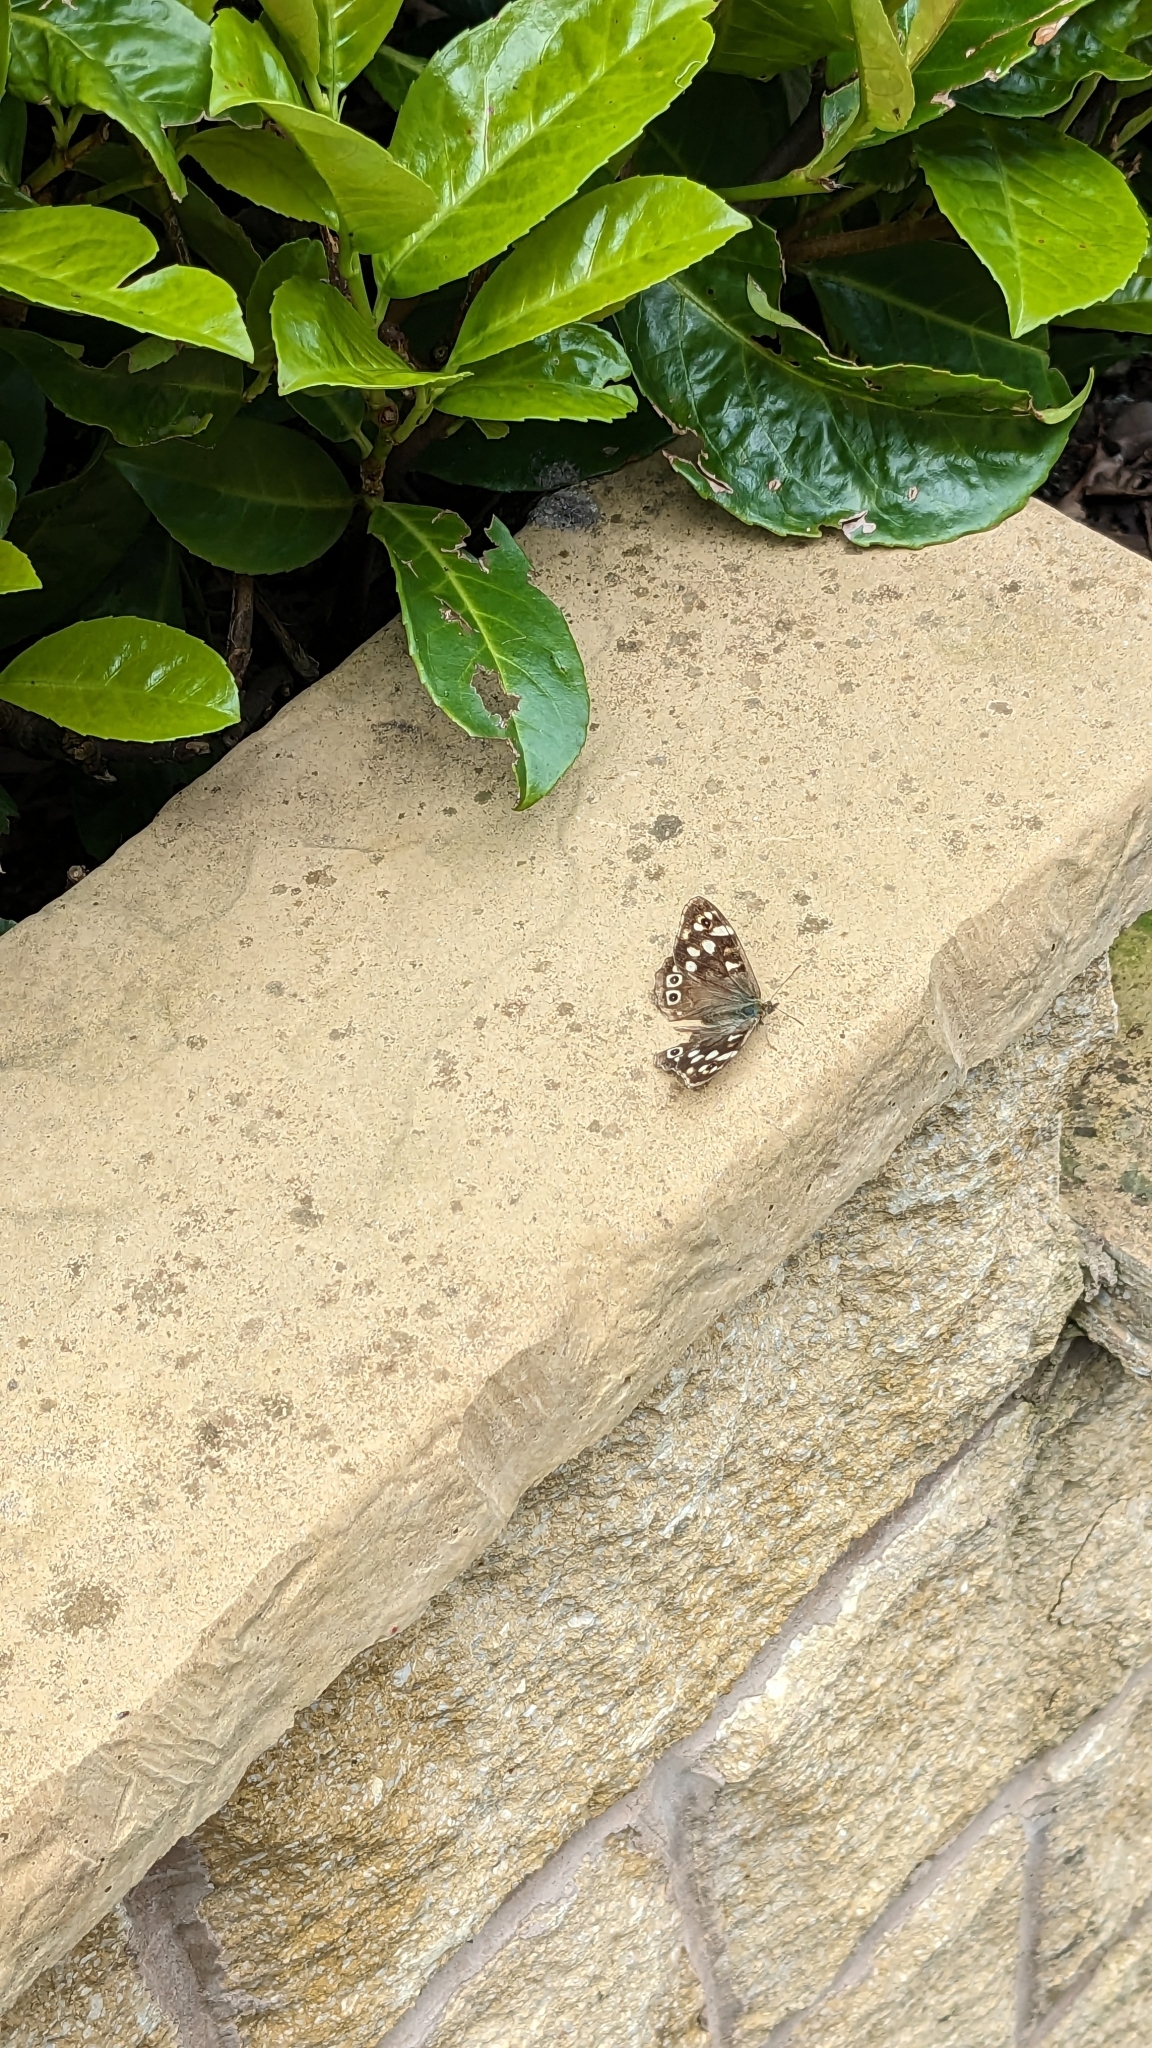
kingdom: Animalia
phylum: Arthropoda
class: Insecta
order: Lepidoptera
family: Nymphalidae
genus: Pararge
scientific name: Pararge aegeria
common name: Speckled wood
